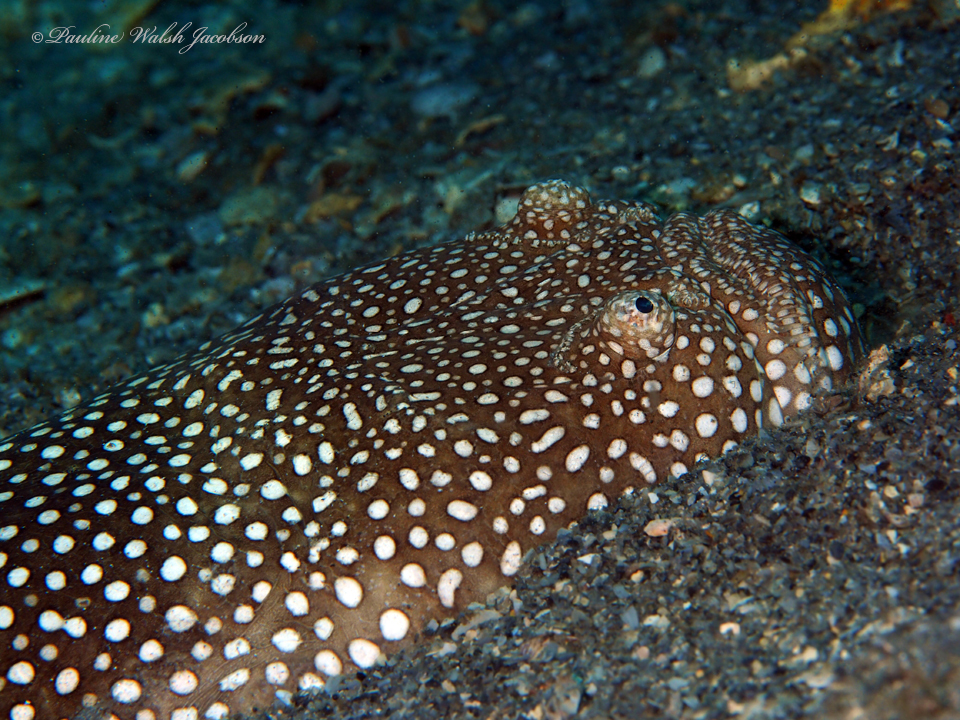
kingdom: Animalia
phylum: Chordata
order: Perciformes
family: Uranoscopidae
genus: Astroscopus
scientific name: Astroscopus y-graecum
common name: Southern stargazer
